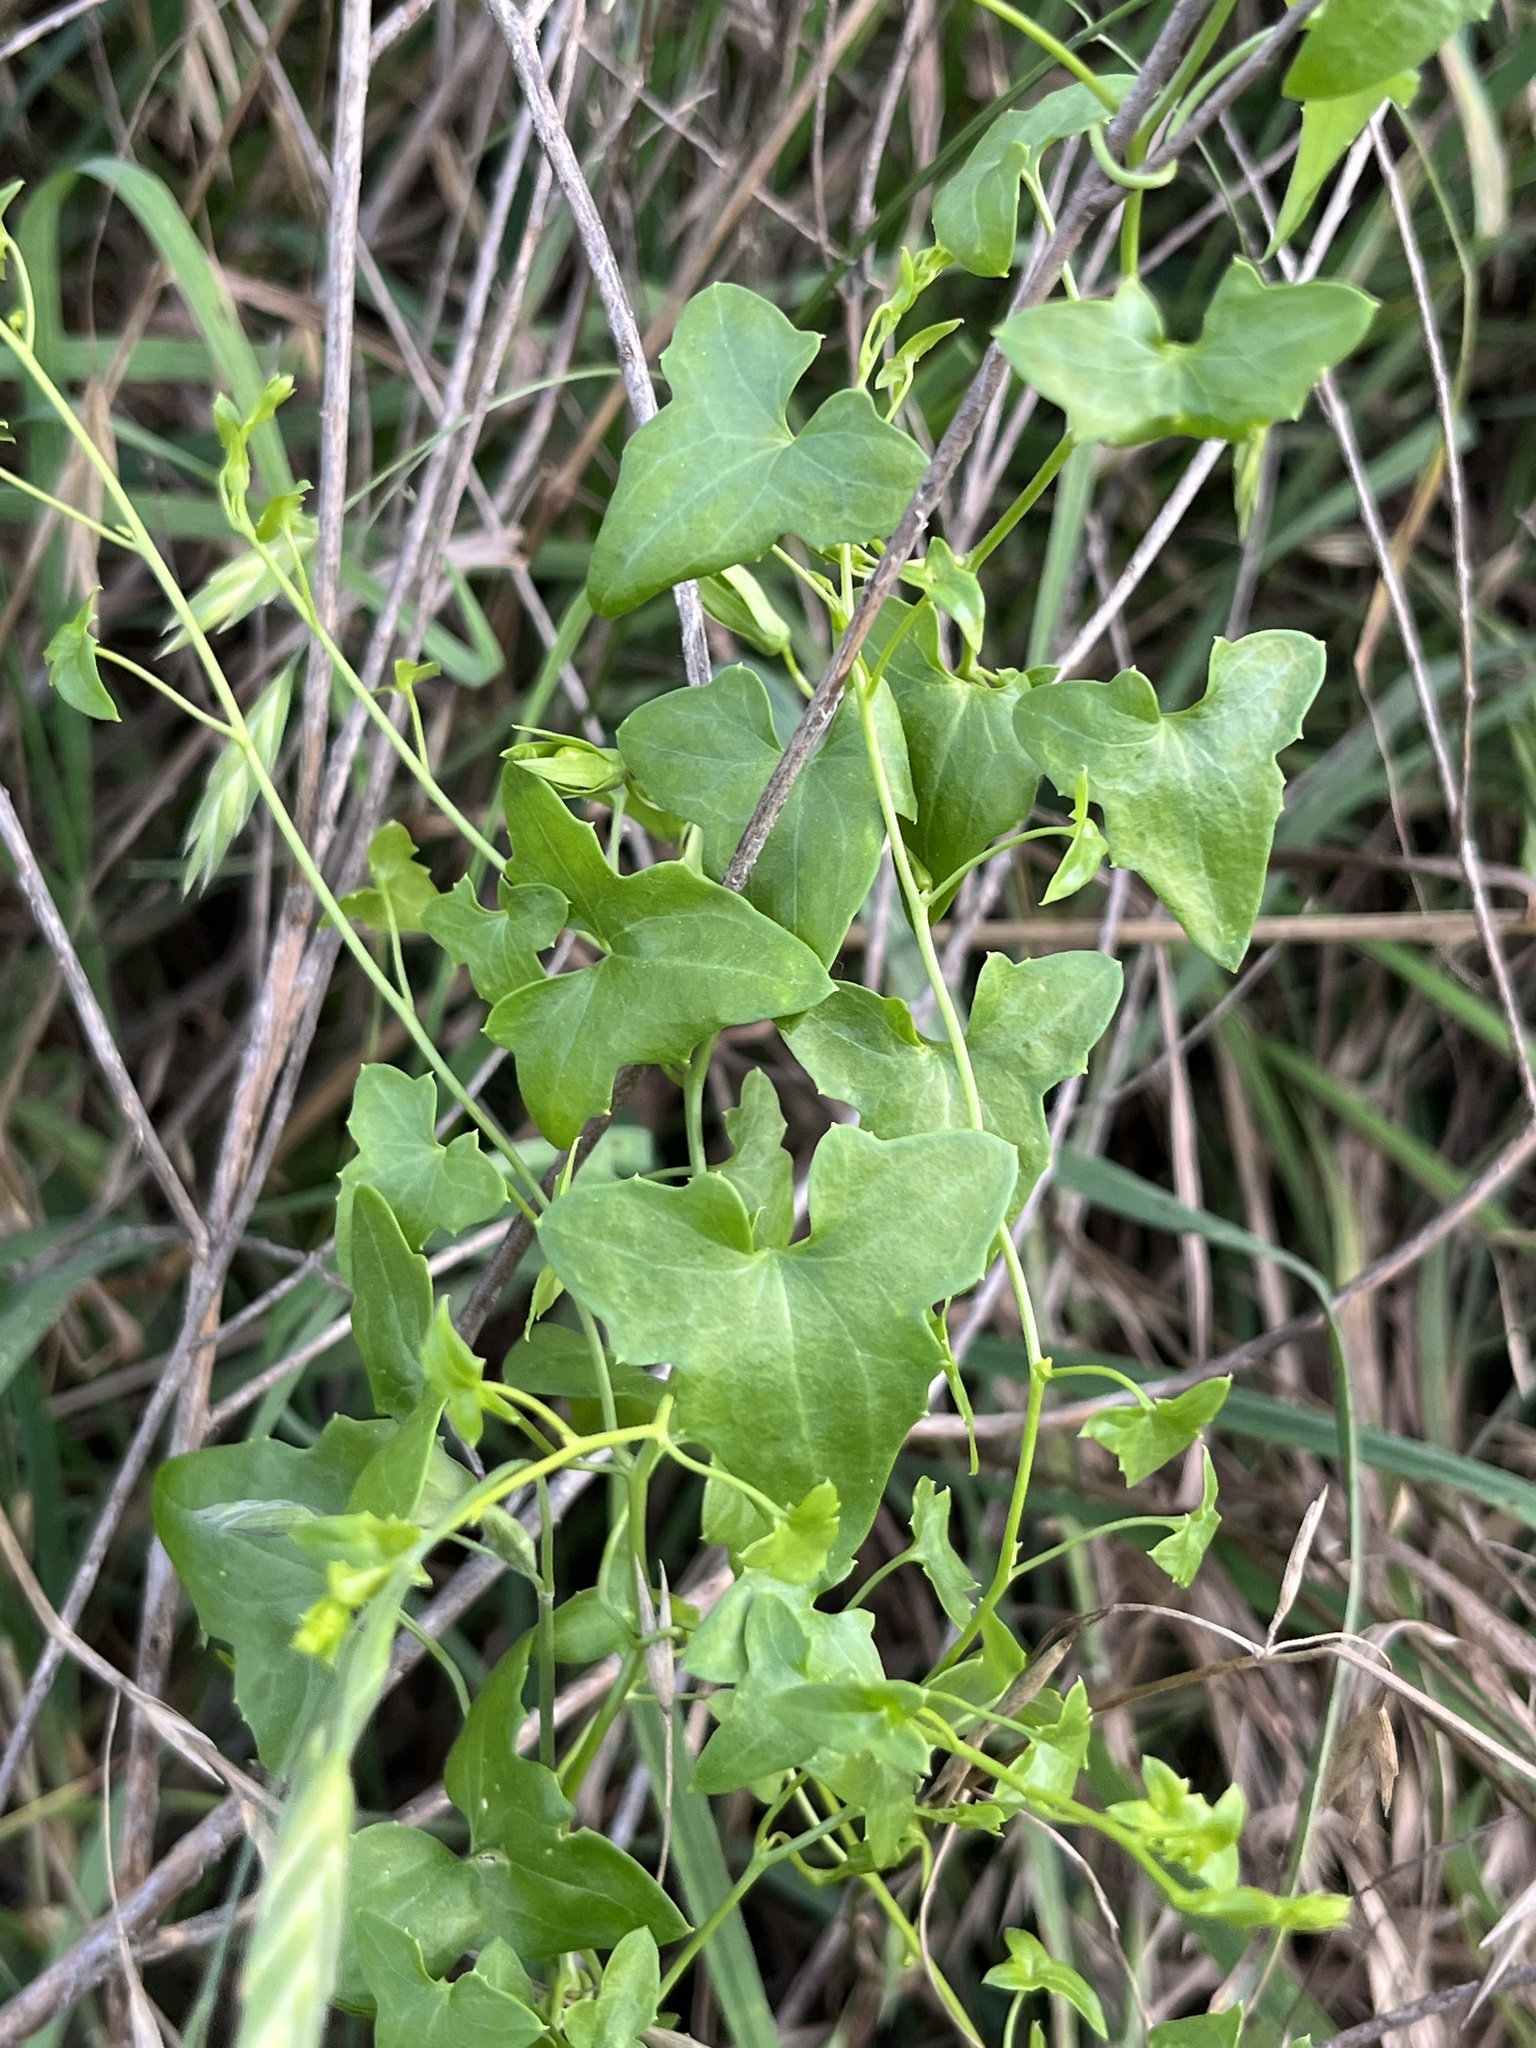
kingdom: Plantae
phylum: Tracheophyta
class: Magnoliopsida
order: Lamiales
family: Plantaginaceae
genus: Maurandella
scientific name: Maurandella antirrhiniflora
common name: Violet twining-snapdragon
